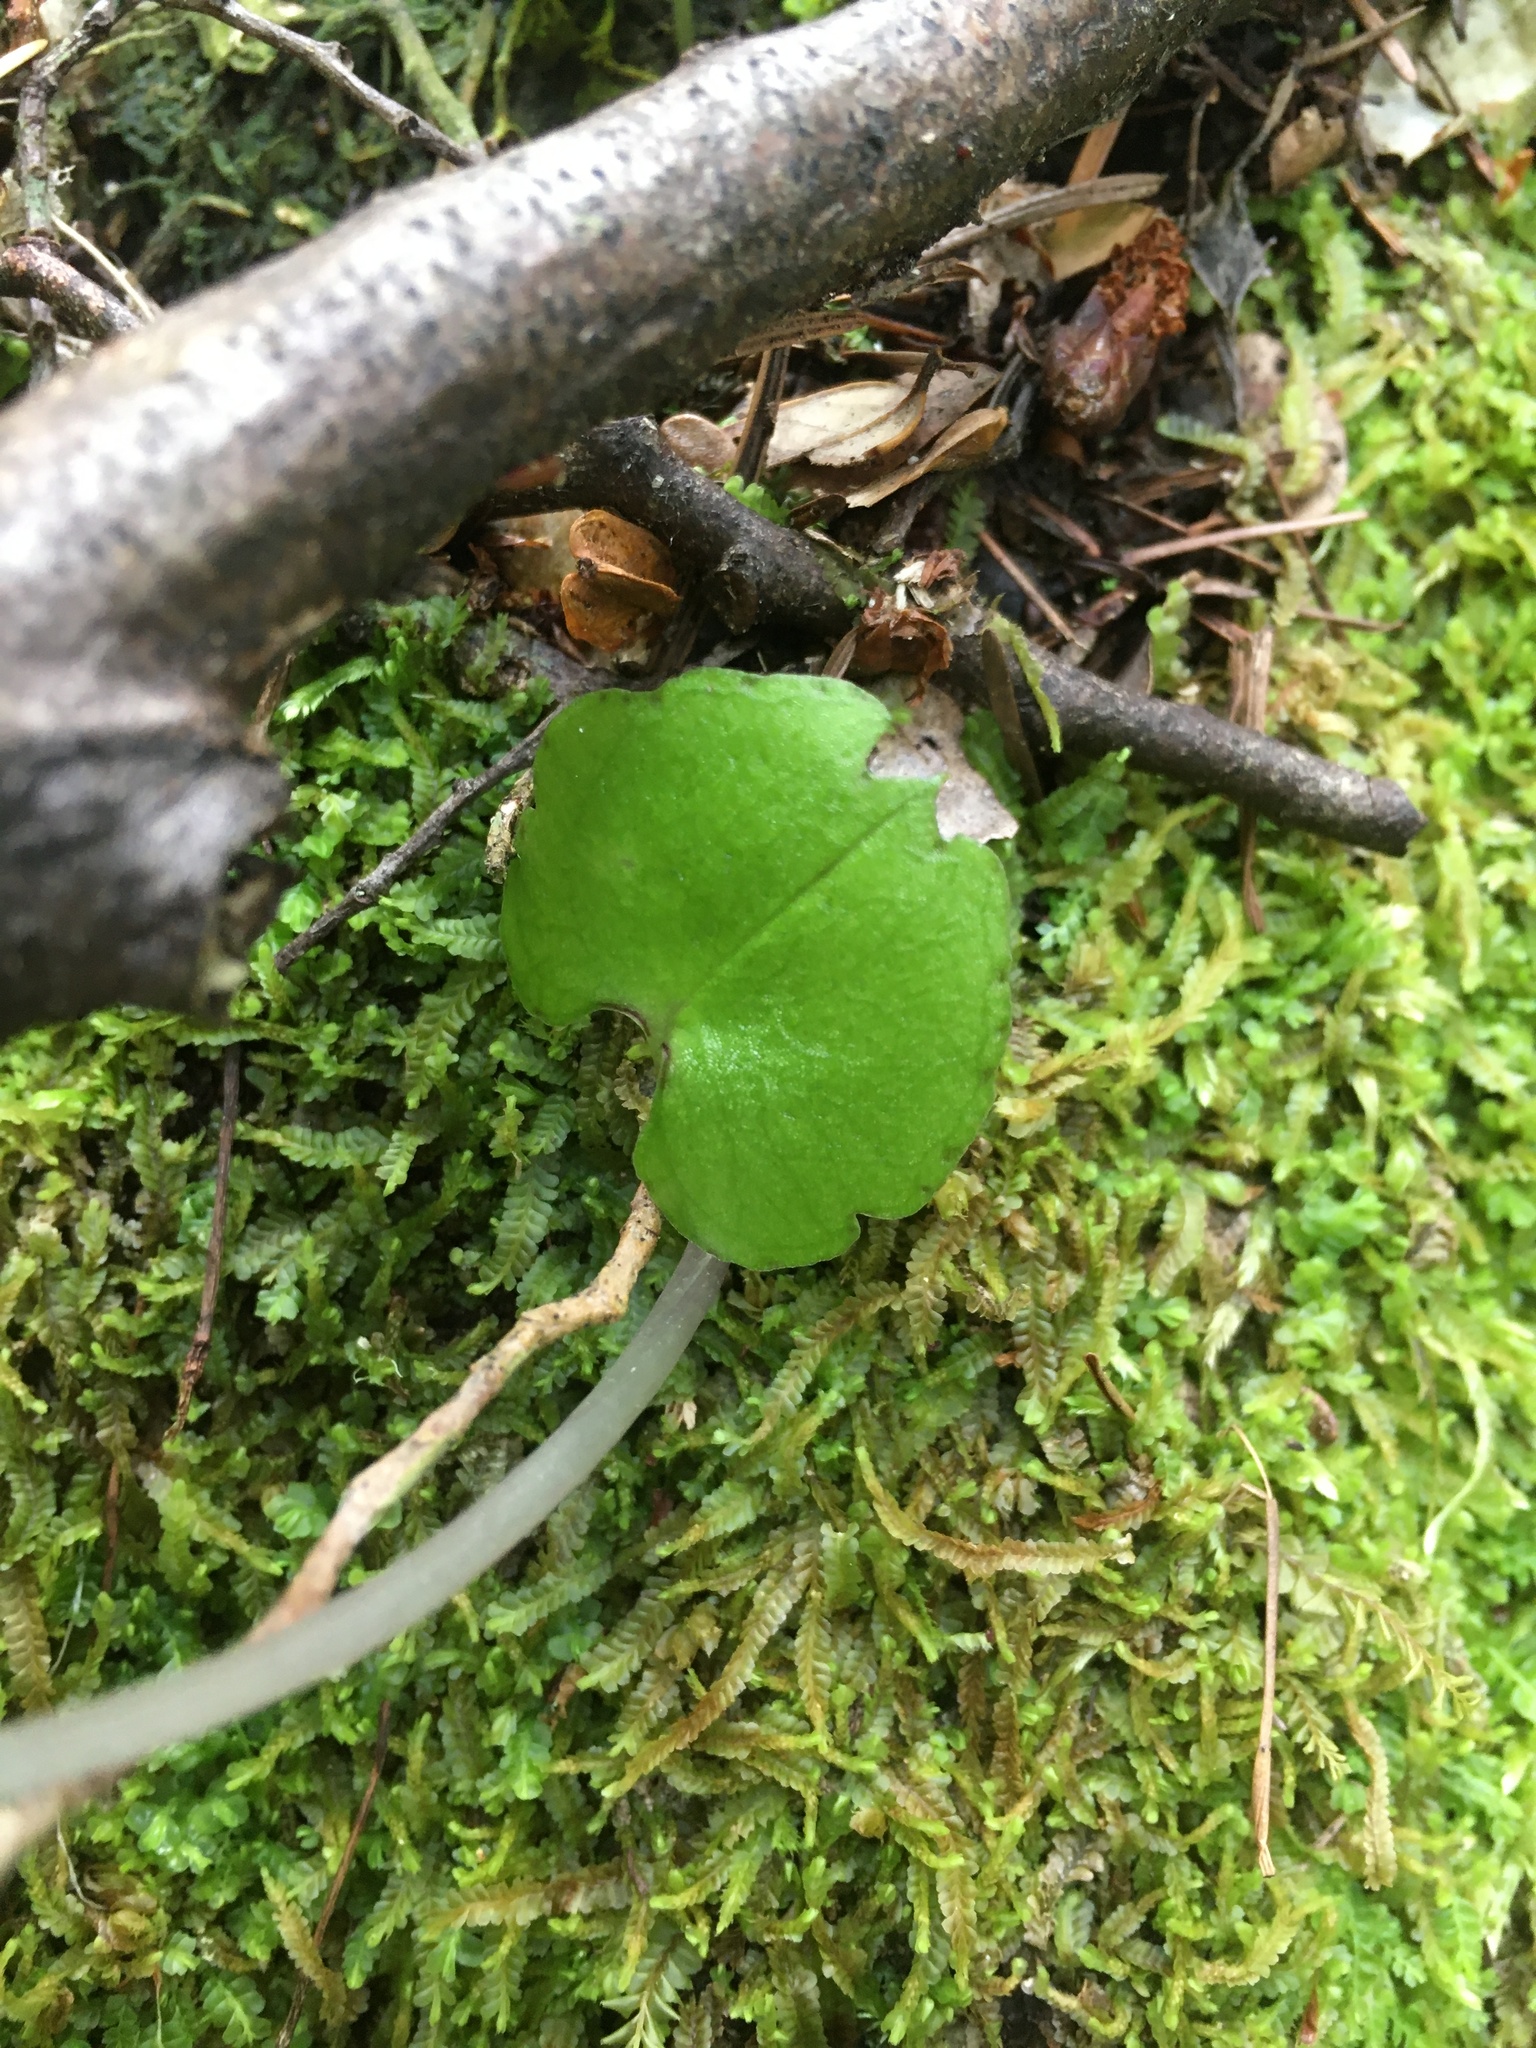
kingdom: Plantae
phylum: Tracheophyta
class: Liliopsida
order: Asparagales
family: Orchidaceae
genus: Corybas
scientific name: Corybas trilobus
